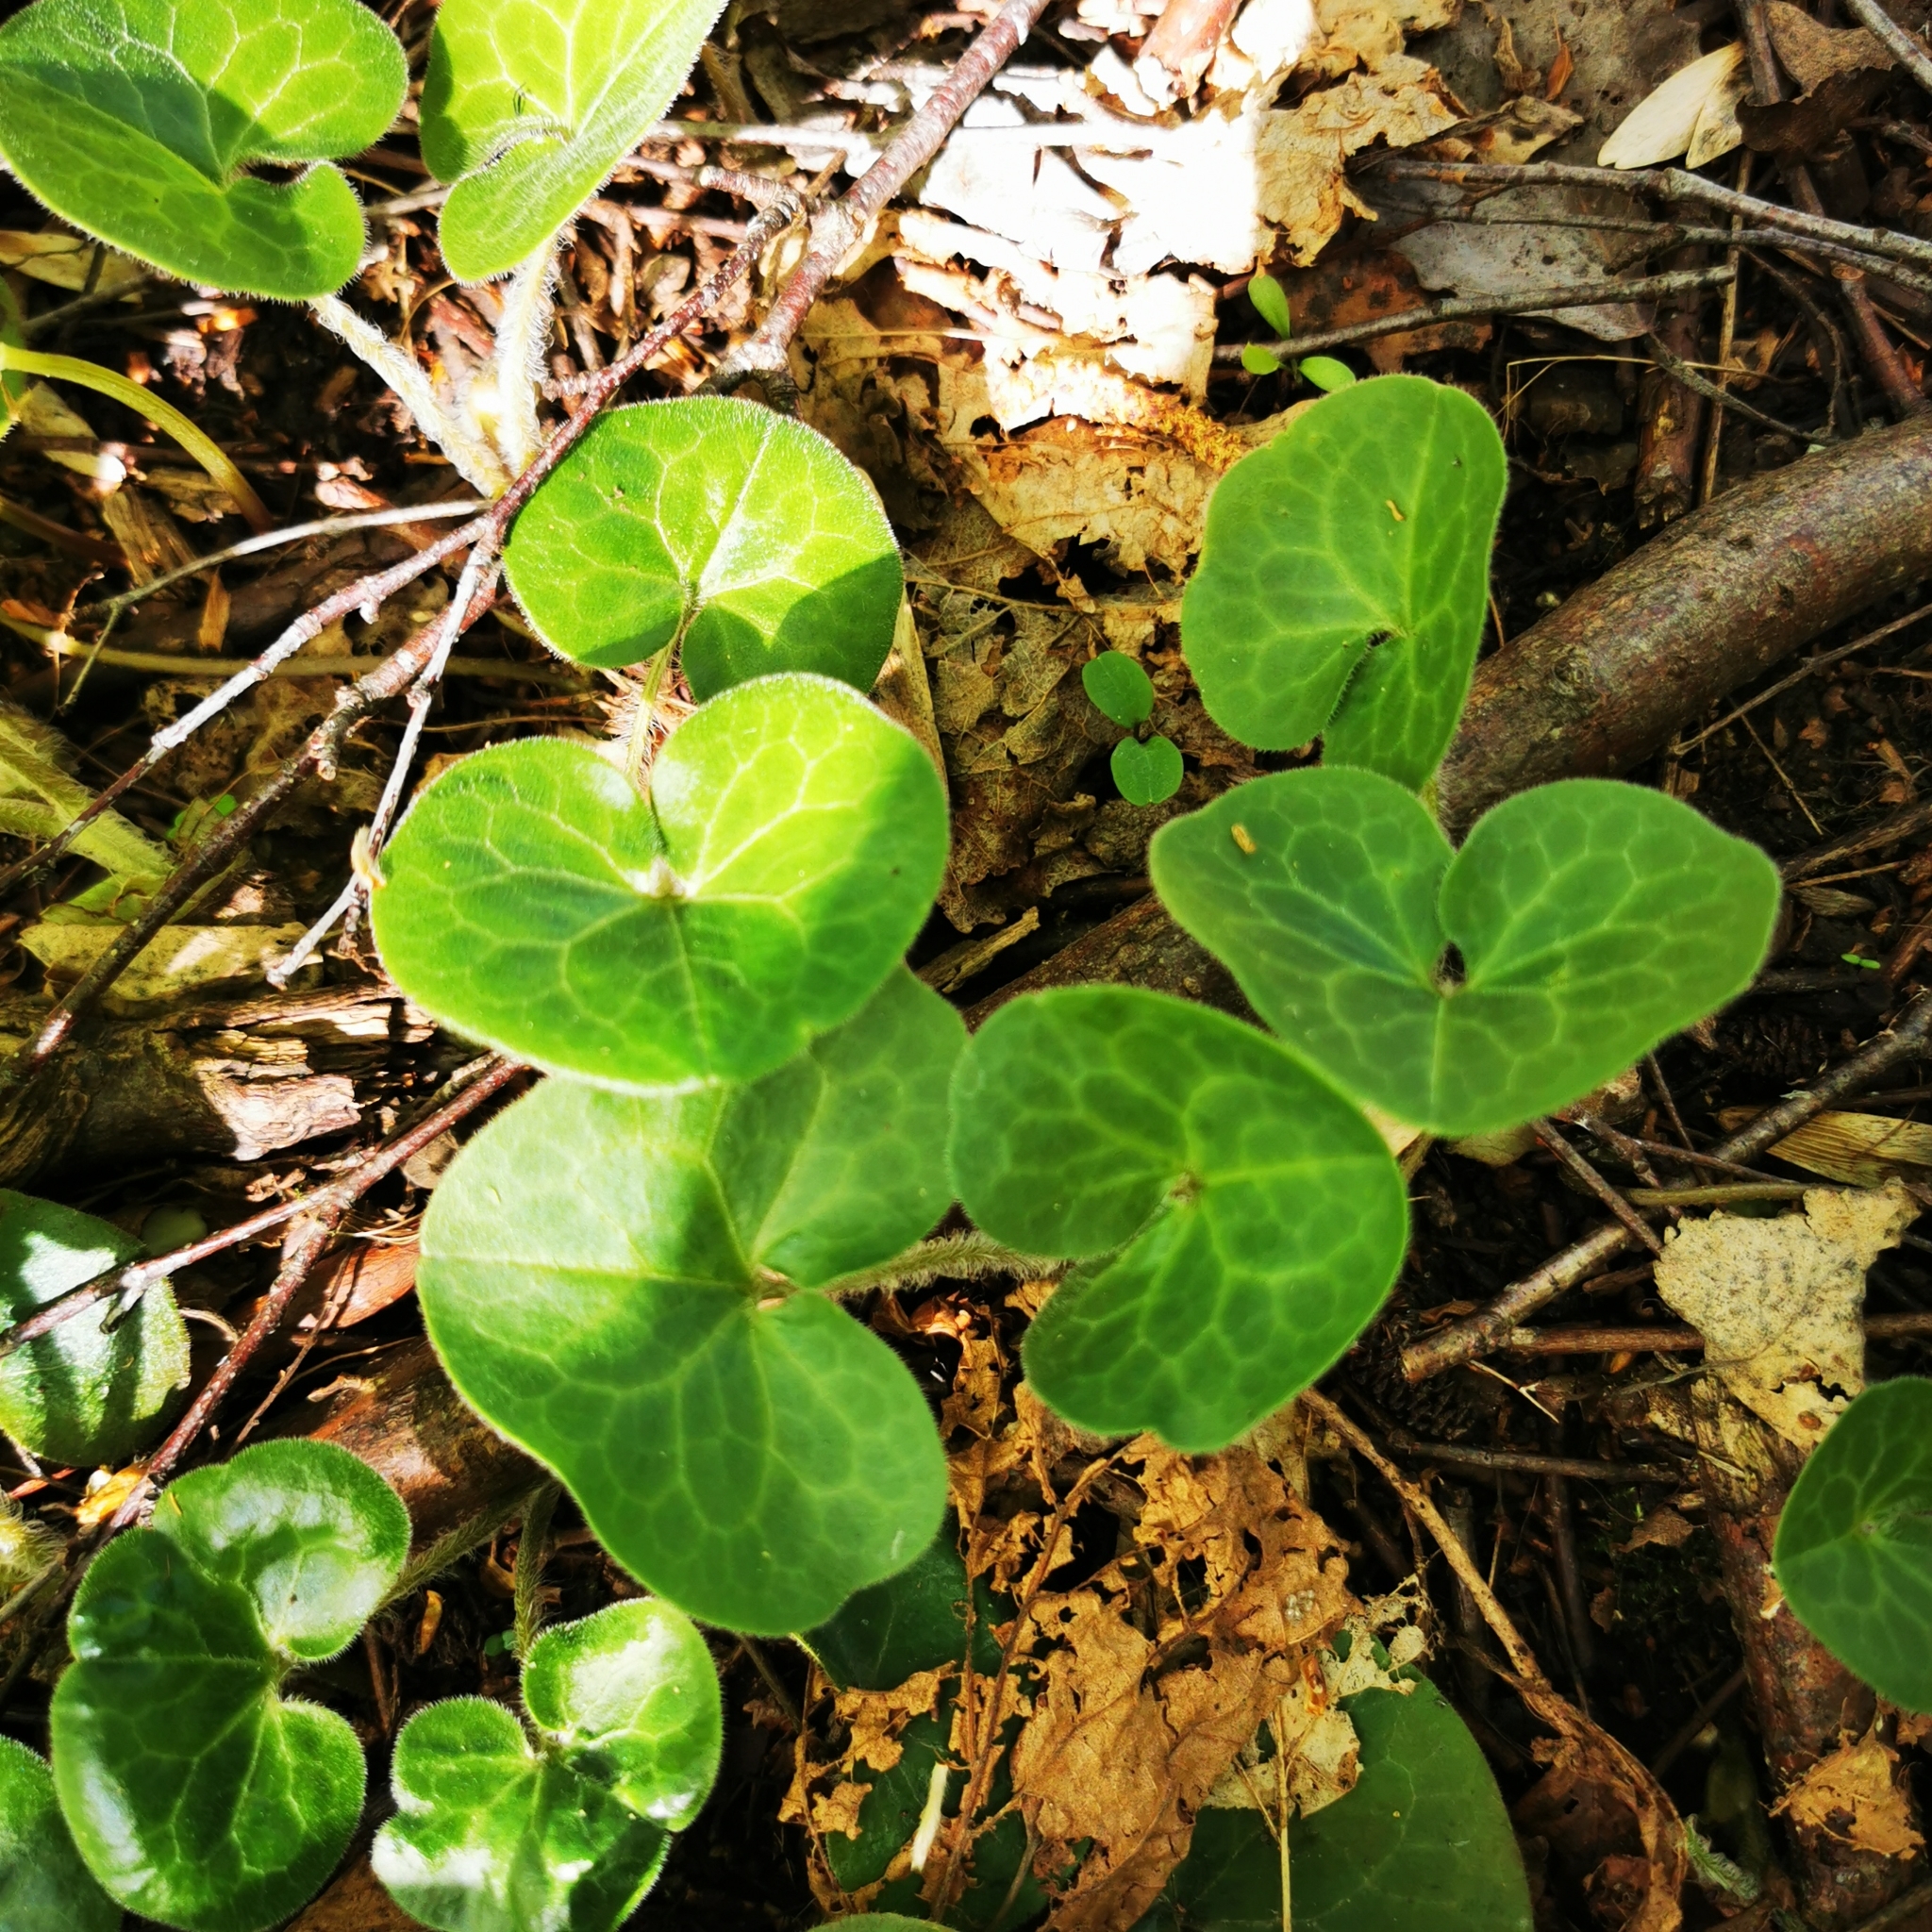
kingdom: Plantae
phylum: Tracheophyta
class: Magnoliopsida
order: Piperales
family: Aristolochiaceae
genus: Asarum
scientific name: Asarum europaeum
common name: Asarabacca
